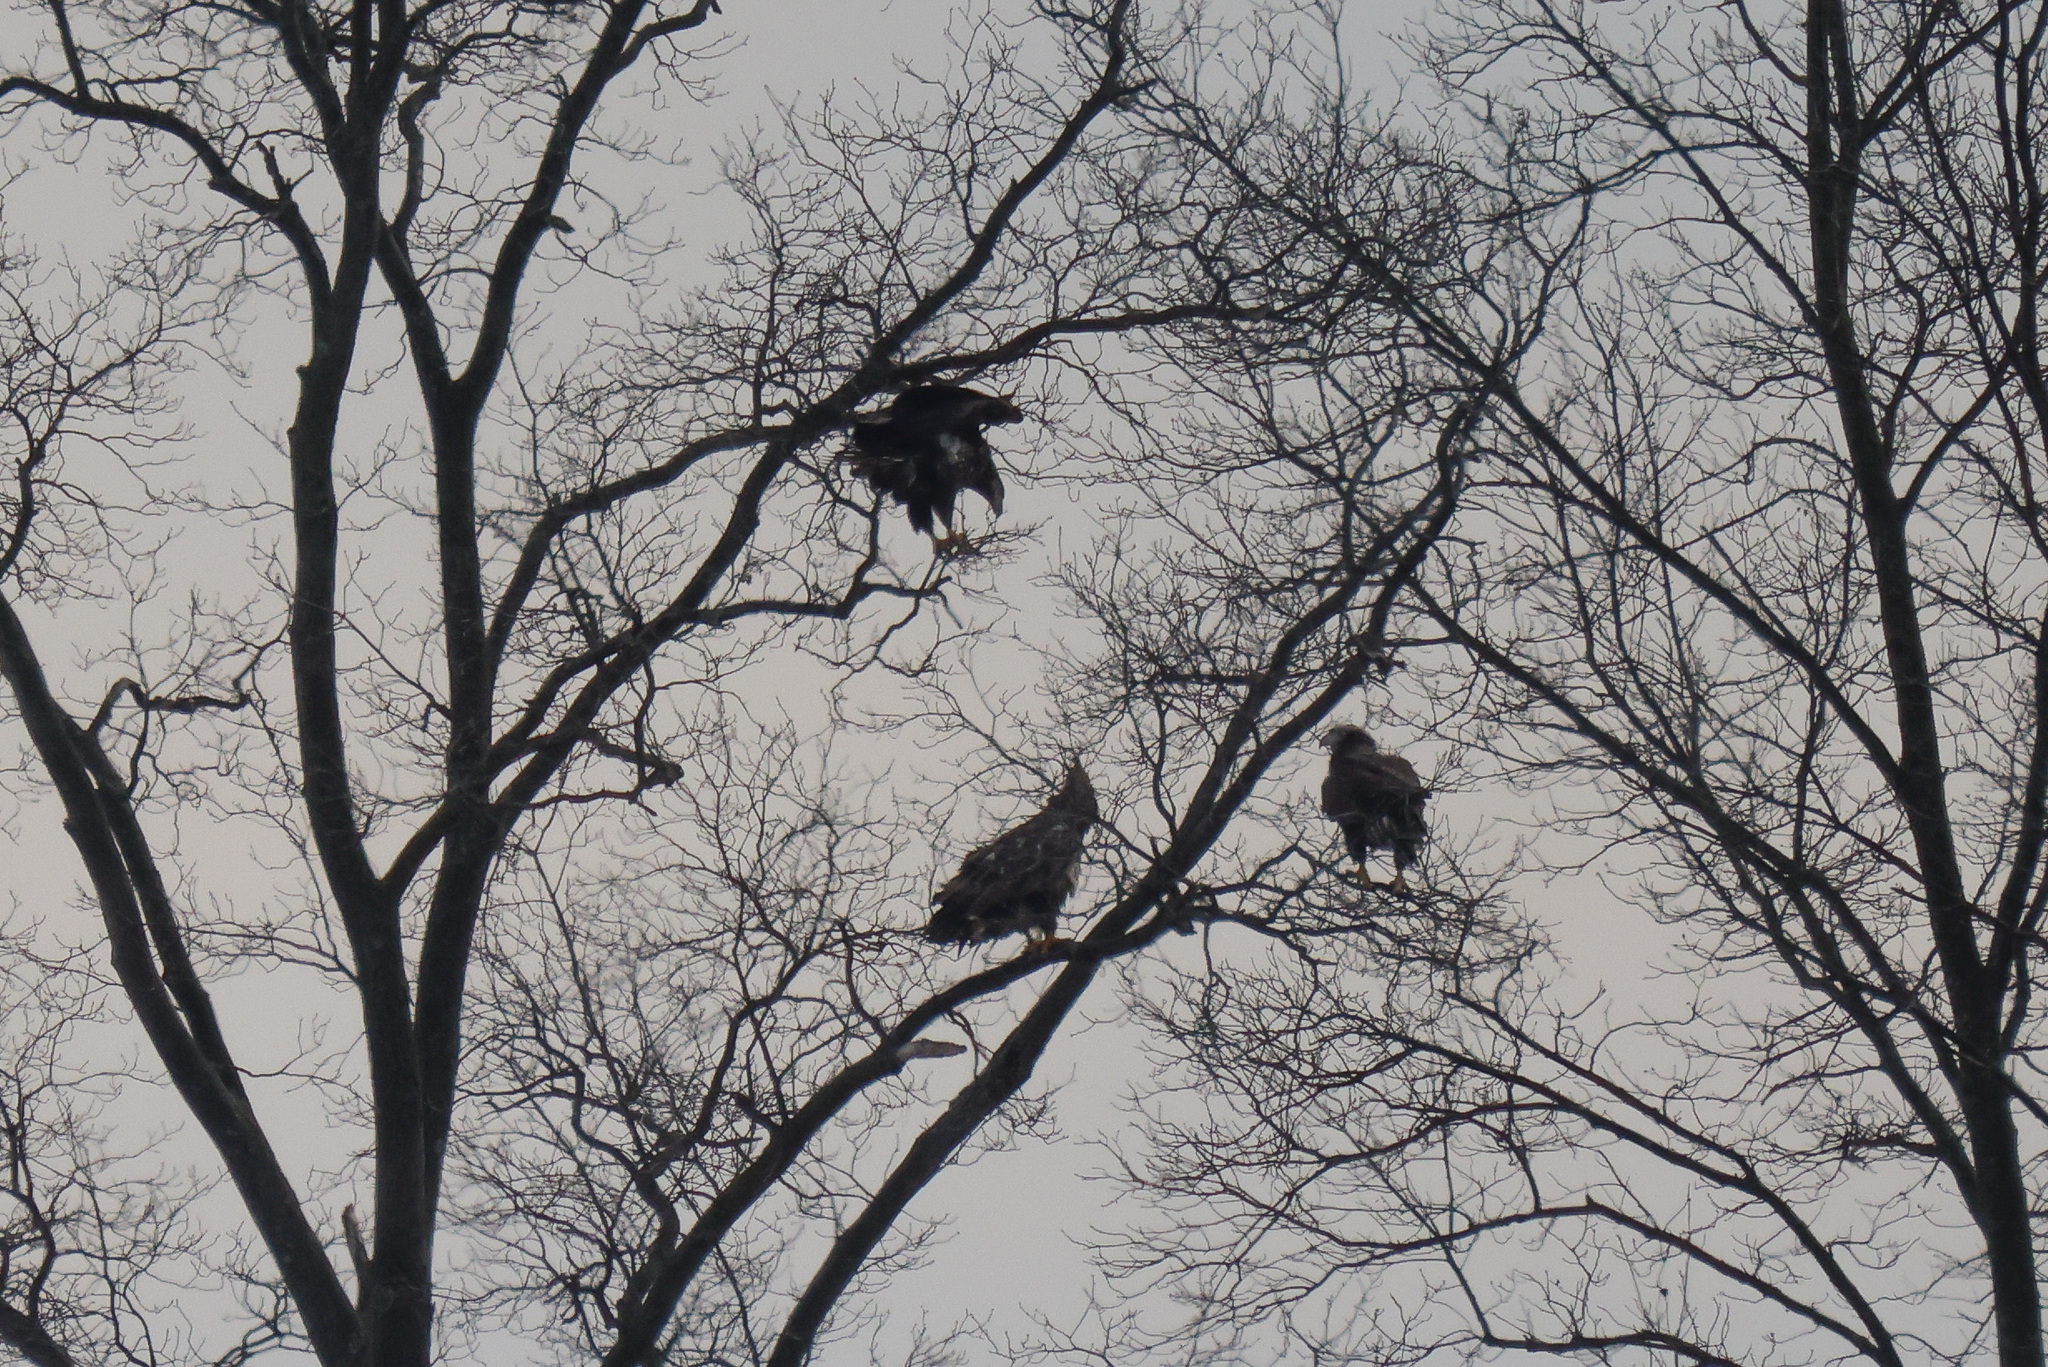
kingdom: Animalia
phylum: Chordata
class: Aves
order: Accipitriformes
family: Accipitridae
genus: Haliaeetus
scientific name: Haliaeetus leucocephalus
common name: Bald eagle
